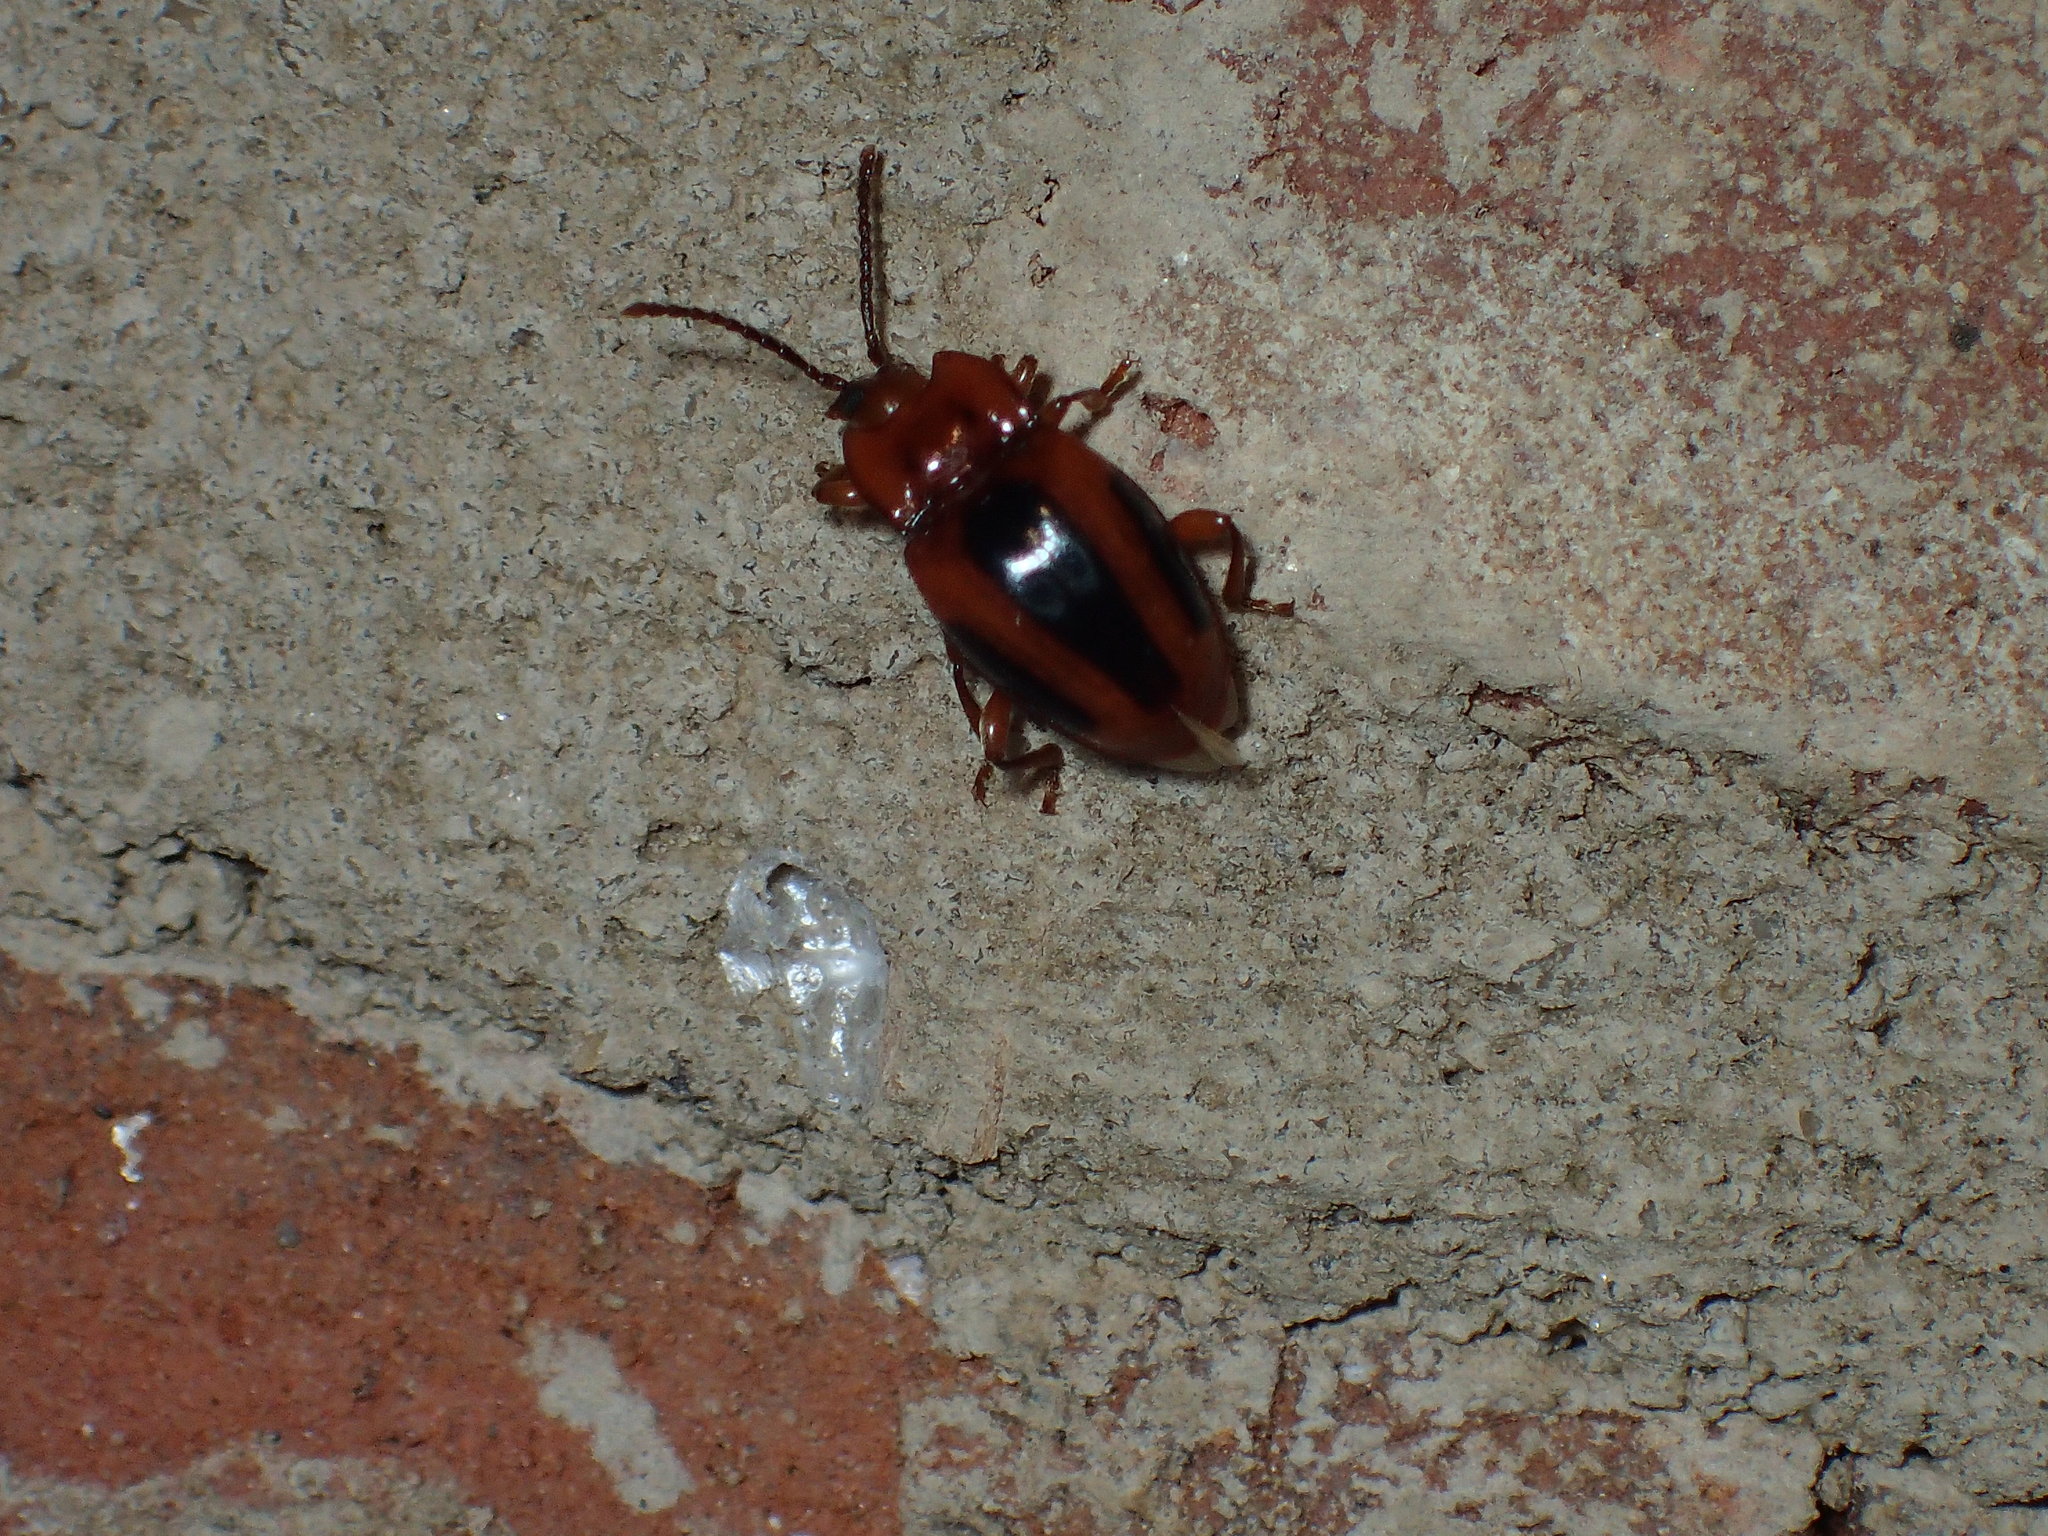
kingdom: Animalia
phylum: Arthropoda
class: Insecta
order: Coleoptera
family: Endomychidae
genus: Aphorista
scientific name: Aphorista vittata
